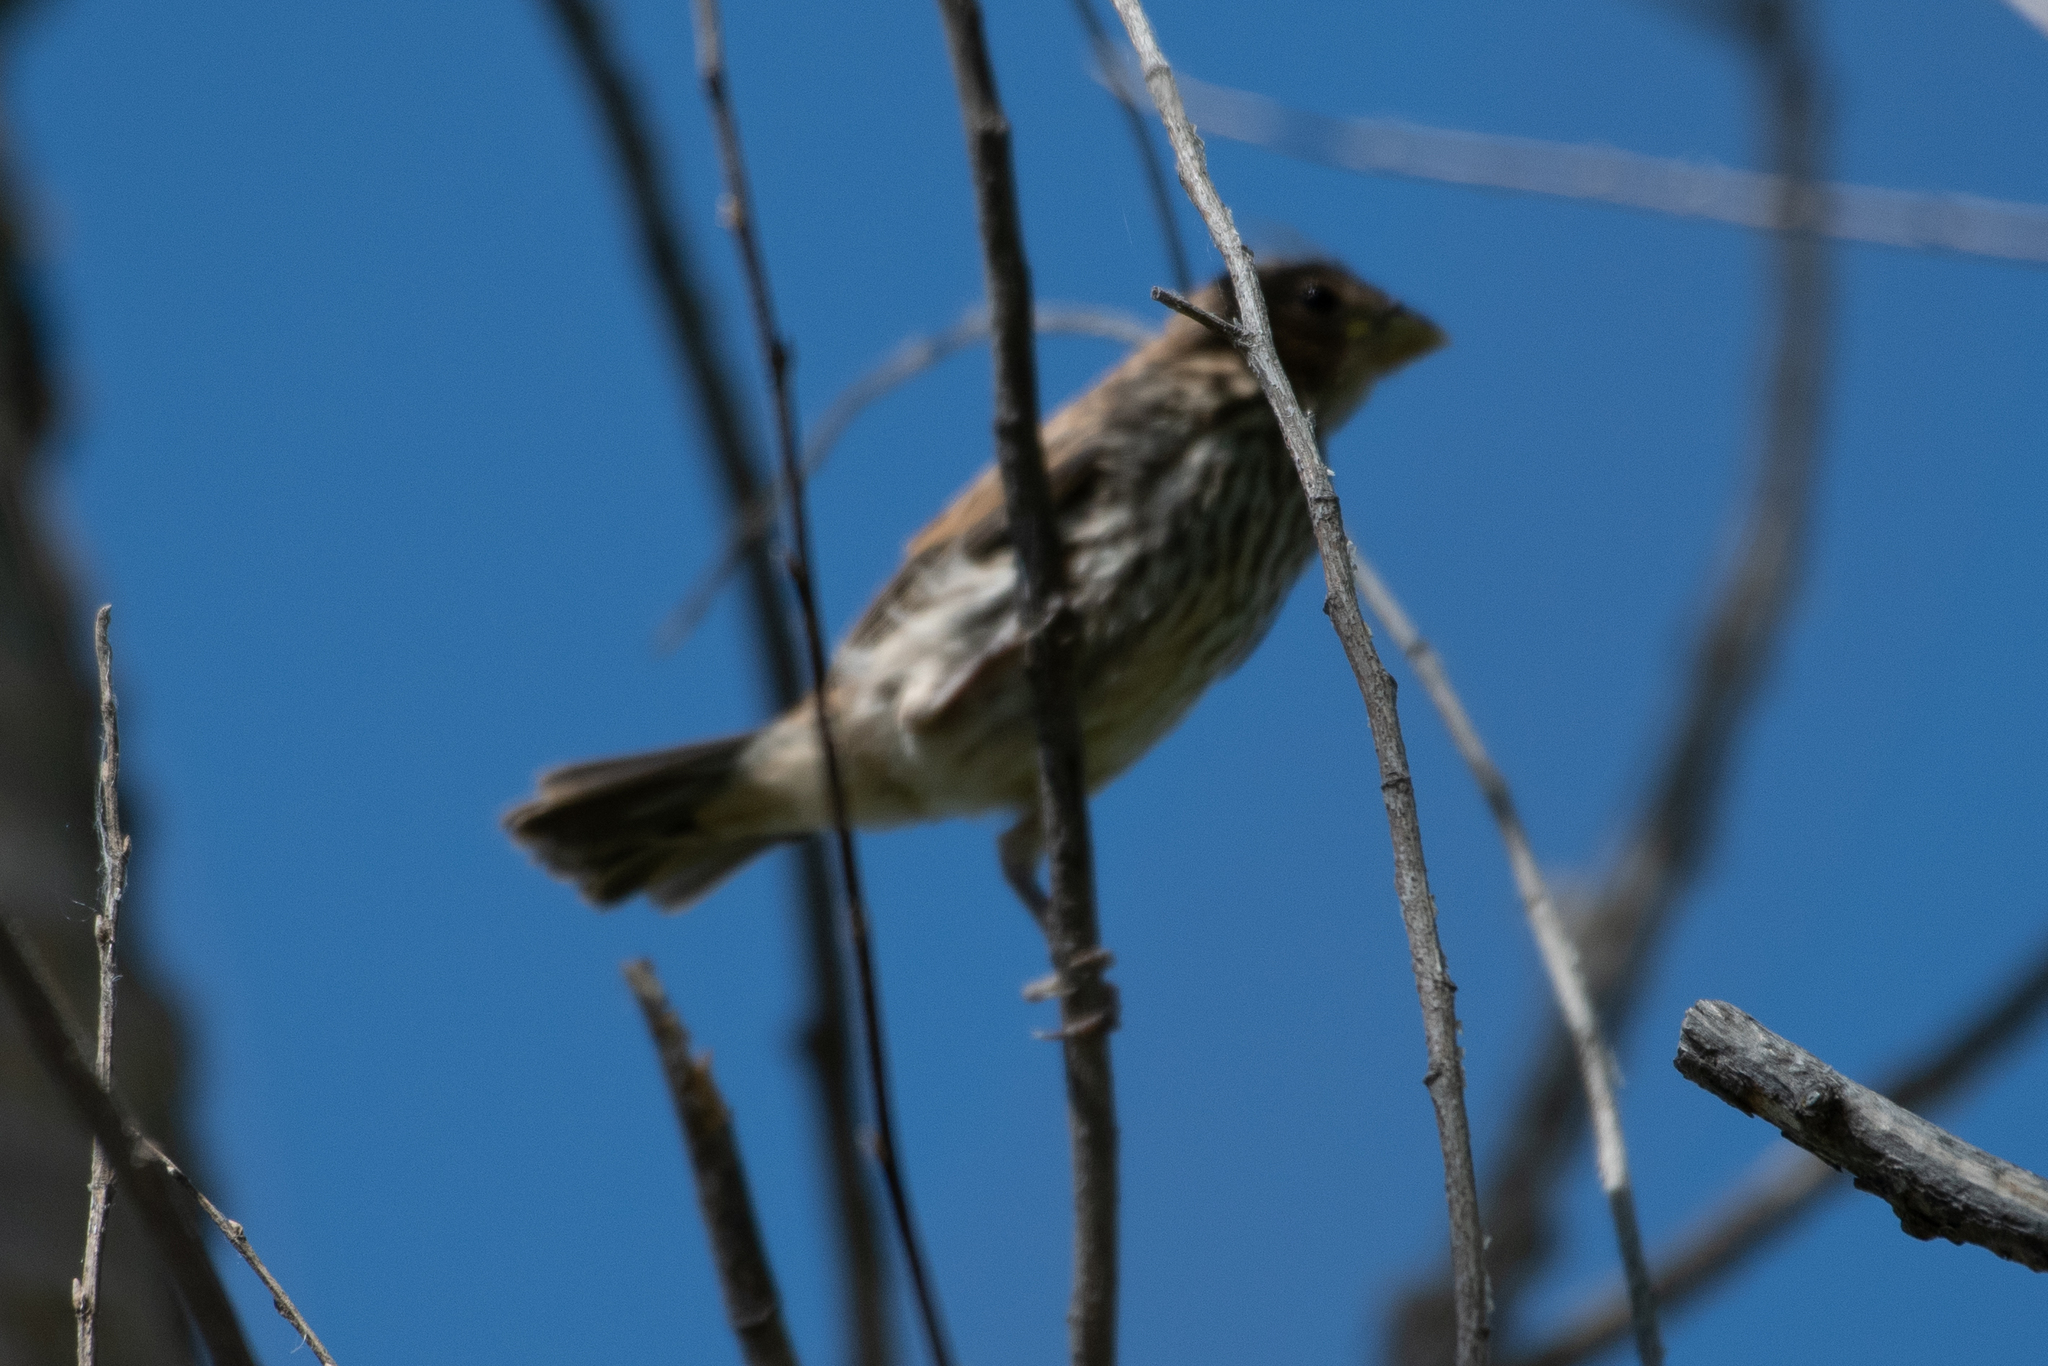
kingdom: Animalia
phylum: Chordata
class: Aves
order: Passeriformes
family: Fringillidae
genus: Haemorhous
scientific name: Haemorhous mexicanus
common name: House finch
